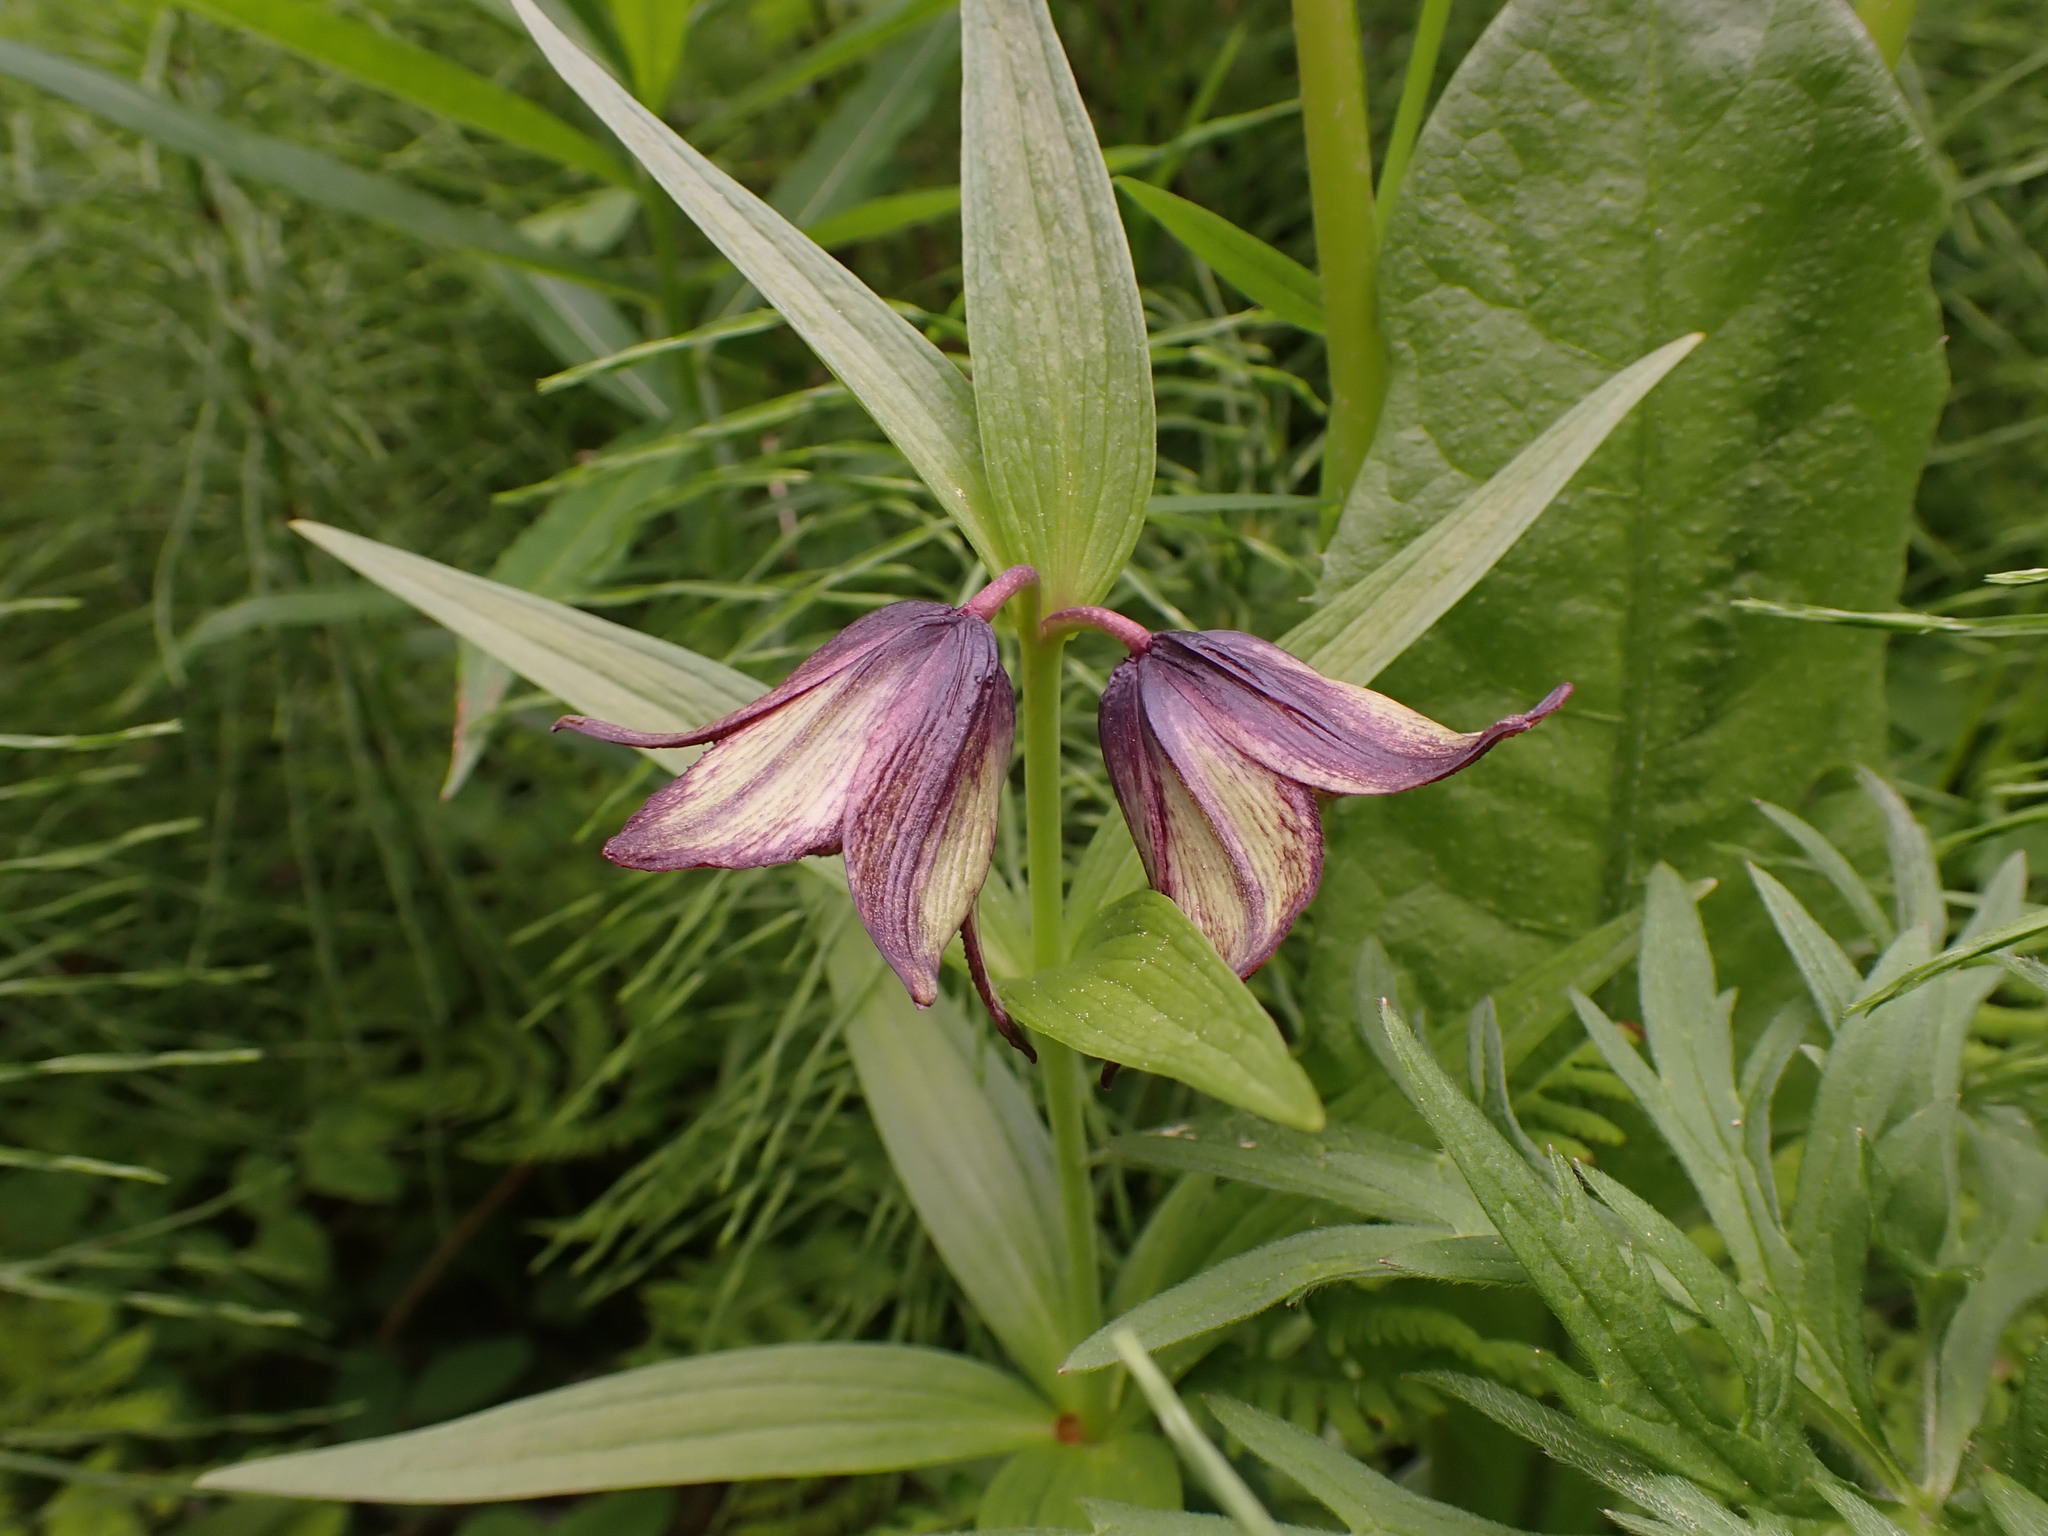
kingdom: Plantae
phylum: Tracheophyta
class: Liliopsida
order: Liliales
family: Liliaceae
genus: Fritillaria
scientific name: Fritillaria camschatcensis
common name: Kamchatka fritillary
